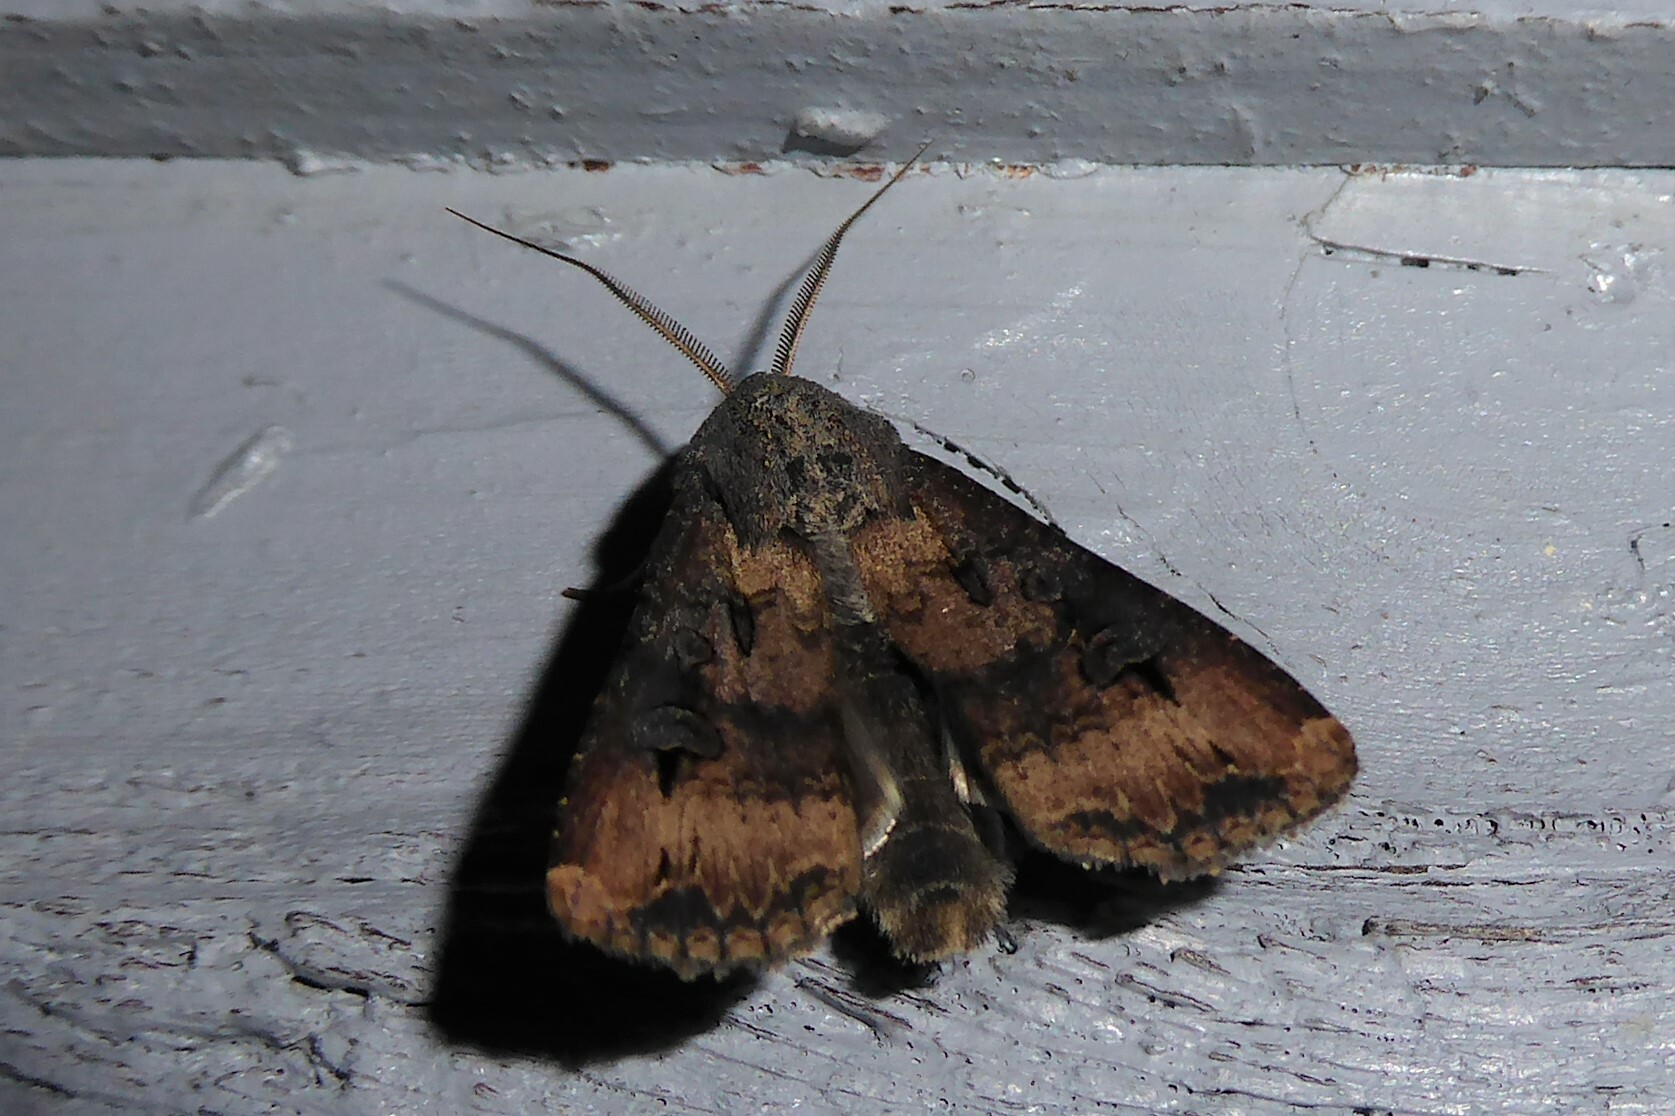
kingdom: Animalia
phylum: Arthropoda
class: Insecta
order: Lepidoptera
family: Noctuidae
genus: Agrotis
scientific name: Agrotis ipsilon
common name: Dark sword-grass
